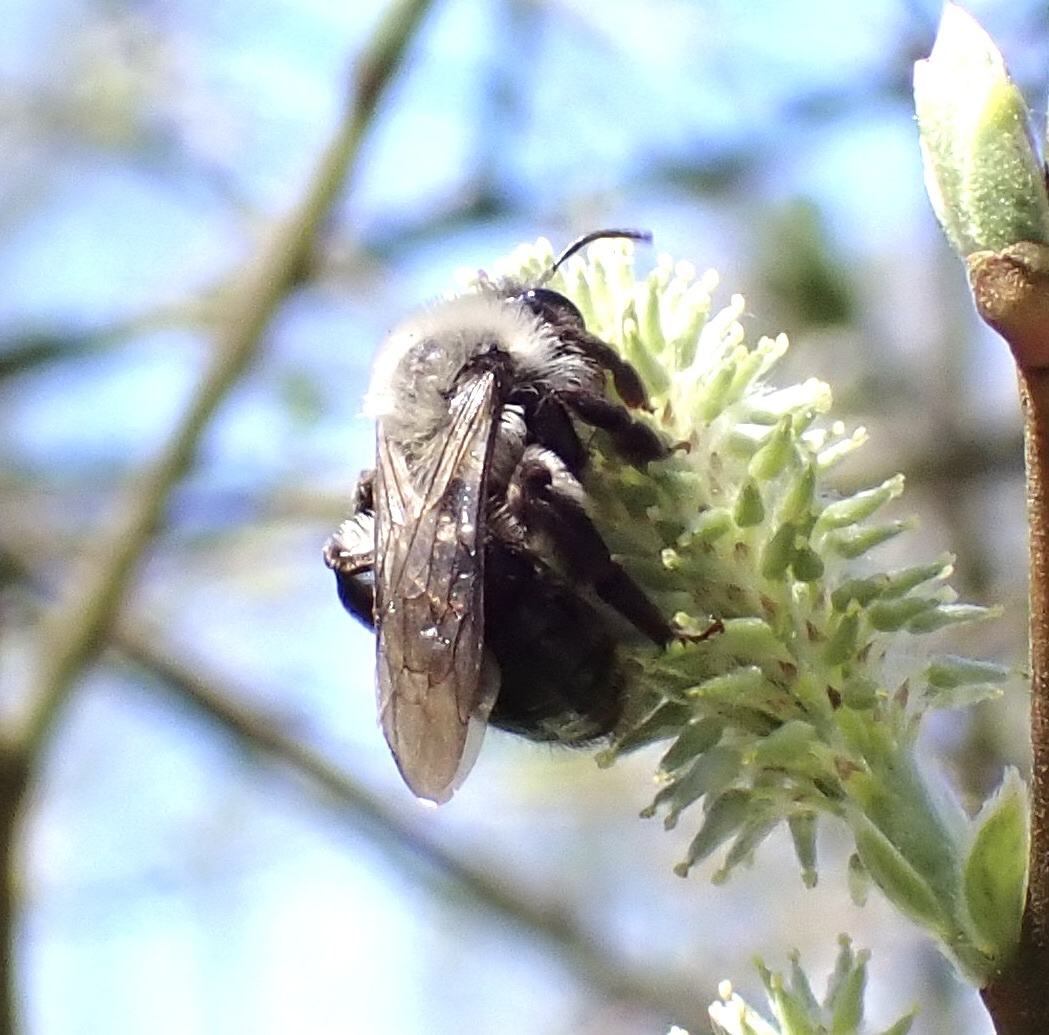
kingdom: Animalia
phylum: Arthropoda
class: Insecta
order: Hymenoptera
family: Andrenidae
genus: Andrena
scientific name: Andrena vaga
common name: Grey-backed mining bee
